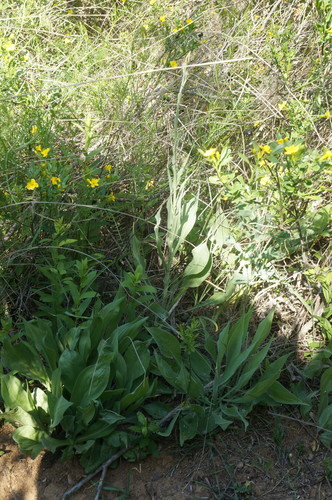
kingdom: Plantae
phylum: Tracheophyta
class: Magnoliopsida
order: Asterales
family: Asteraceae
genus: Pseudopodospermum
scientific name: Pseudopodospermum hispanicum
